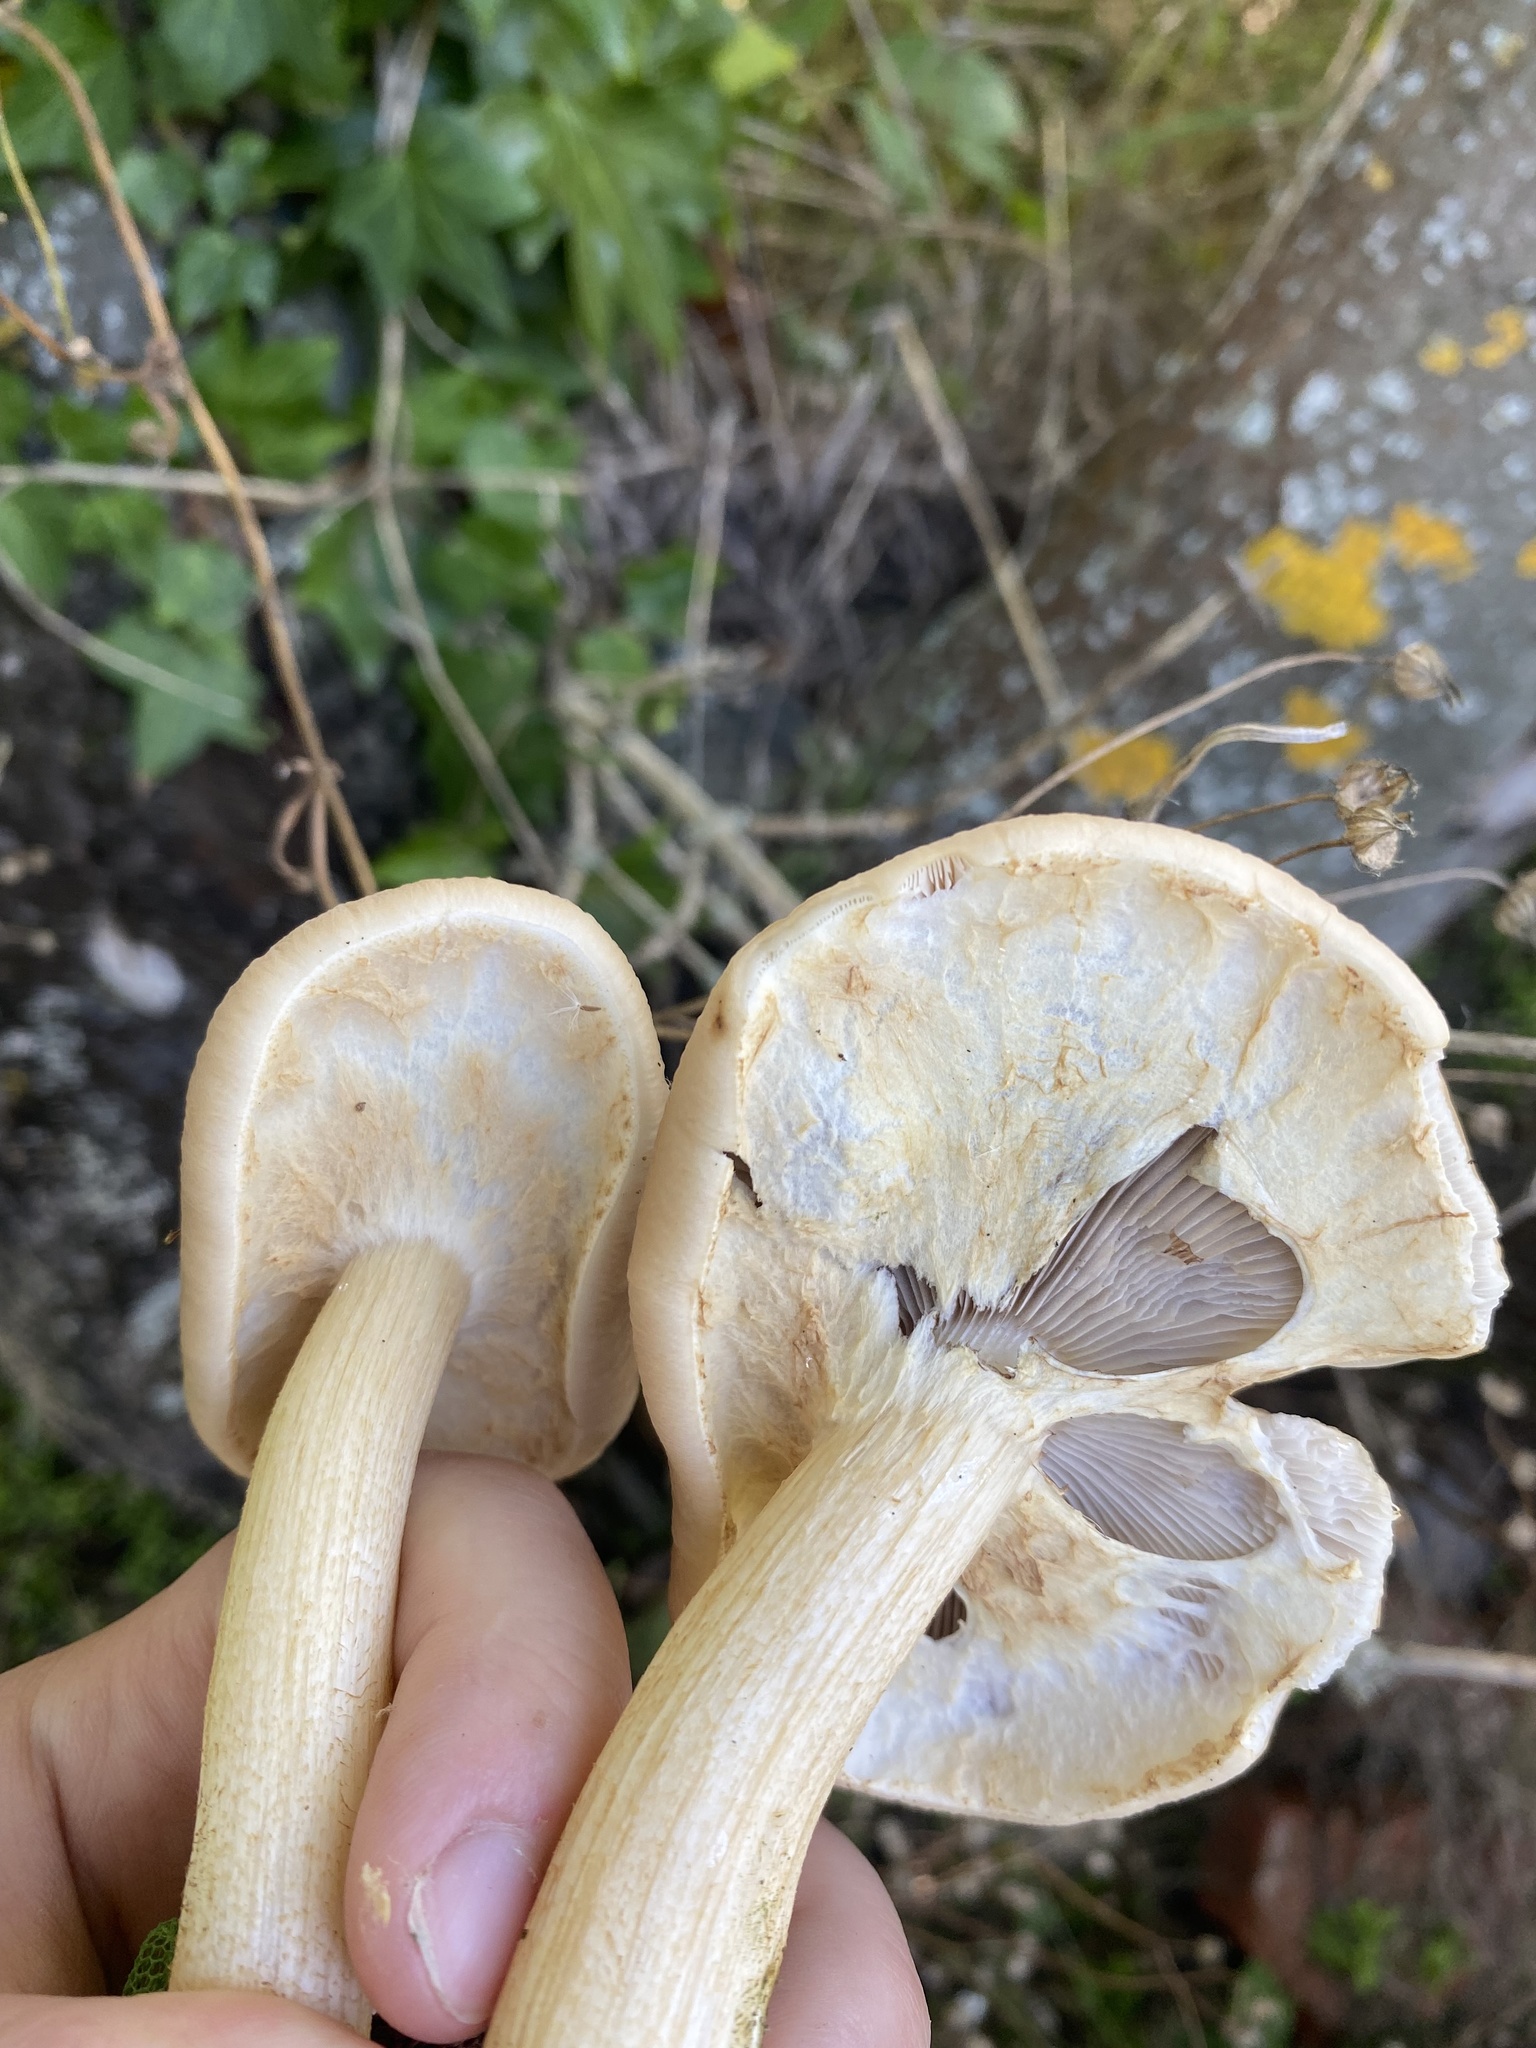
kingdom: Fungi
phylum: Basidiomycota
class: Agaricomycetes
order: Agaricales
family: Tubariaceae
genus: Cyclocybe
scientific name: Cyclocybe parasitica
